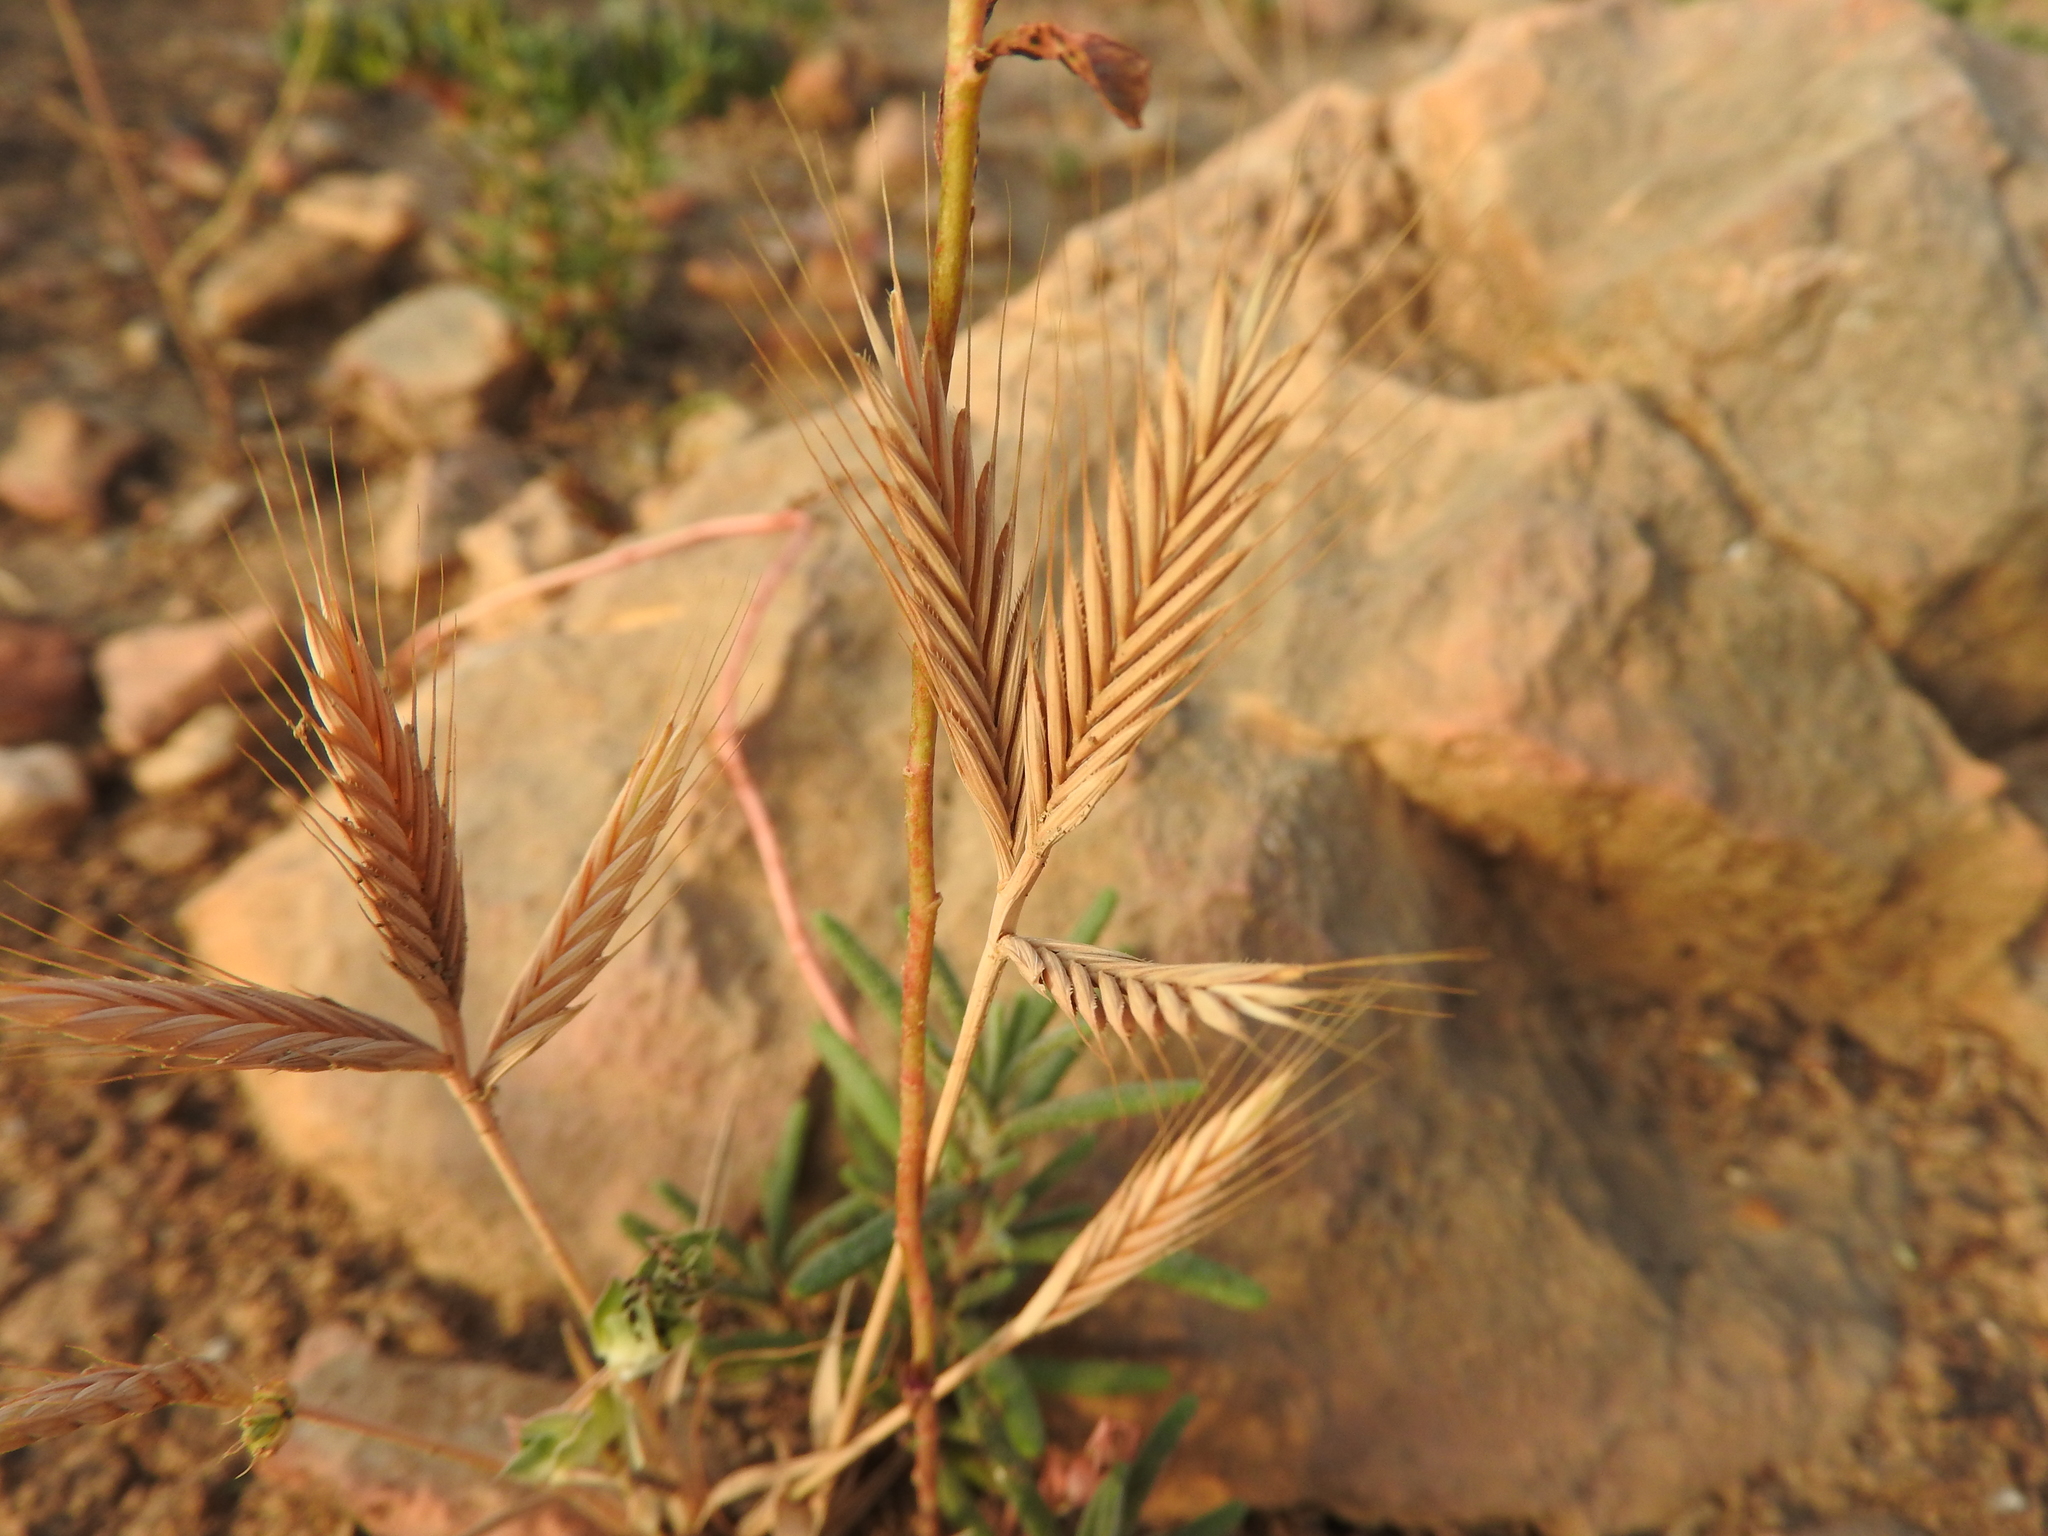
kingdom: Plantae
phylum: Tracheophyta
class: Liliopsida
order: Poales
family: Poaceae
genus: Brachypodium
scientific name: Brachypodium distachyon
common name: Stiff brome
